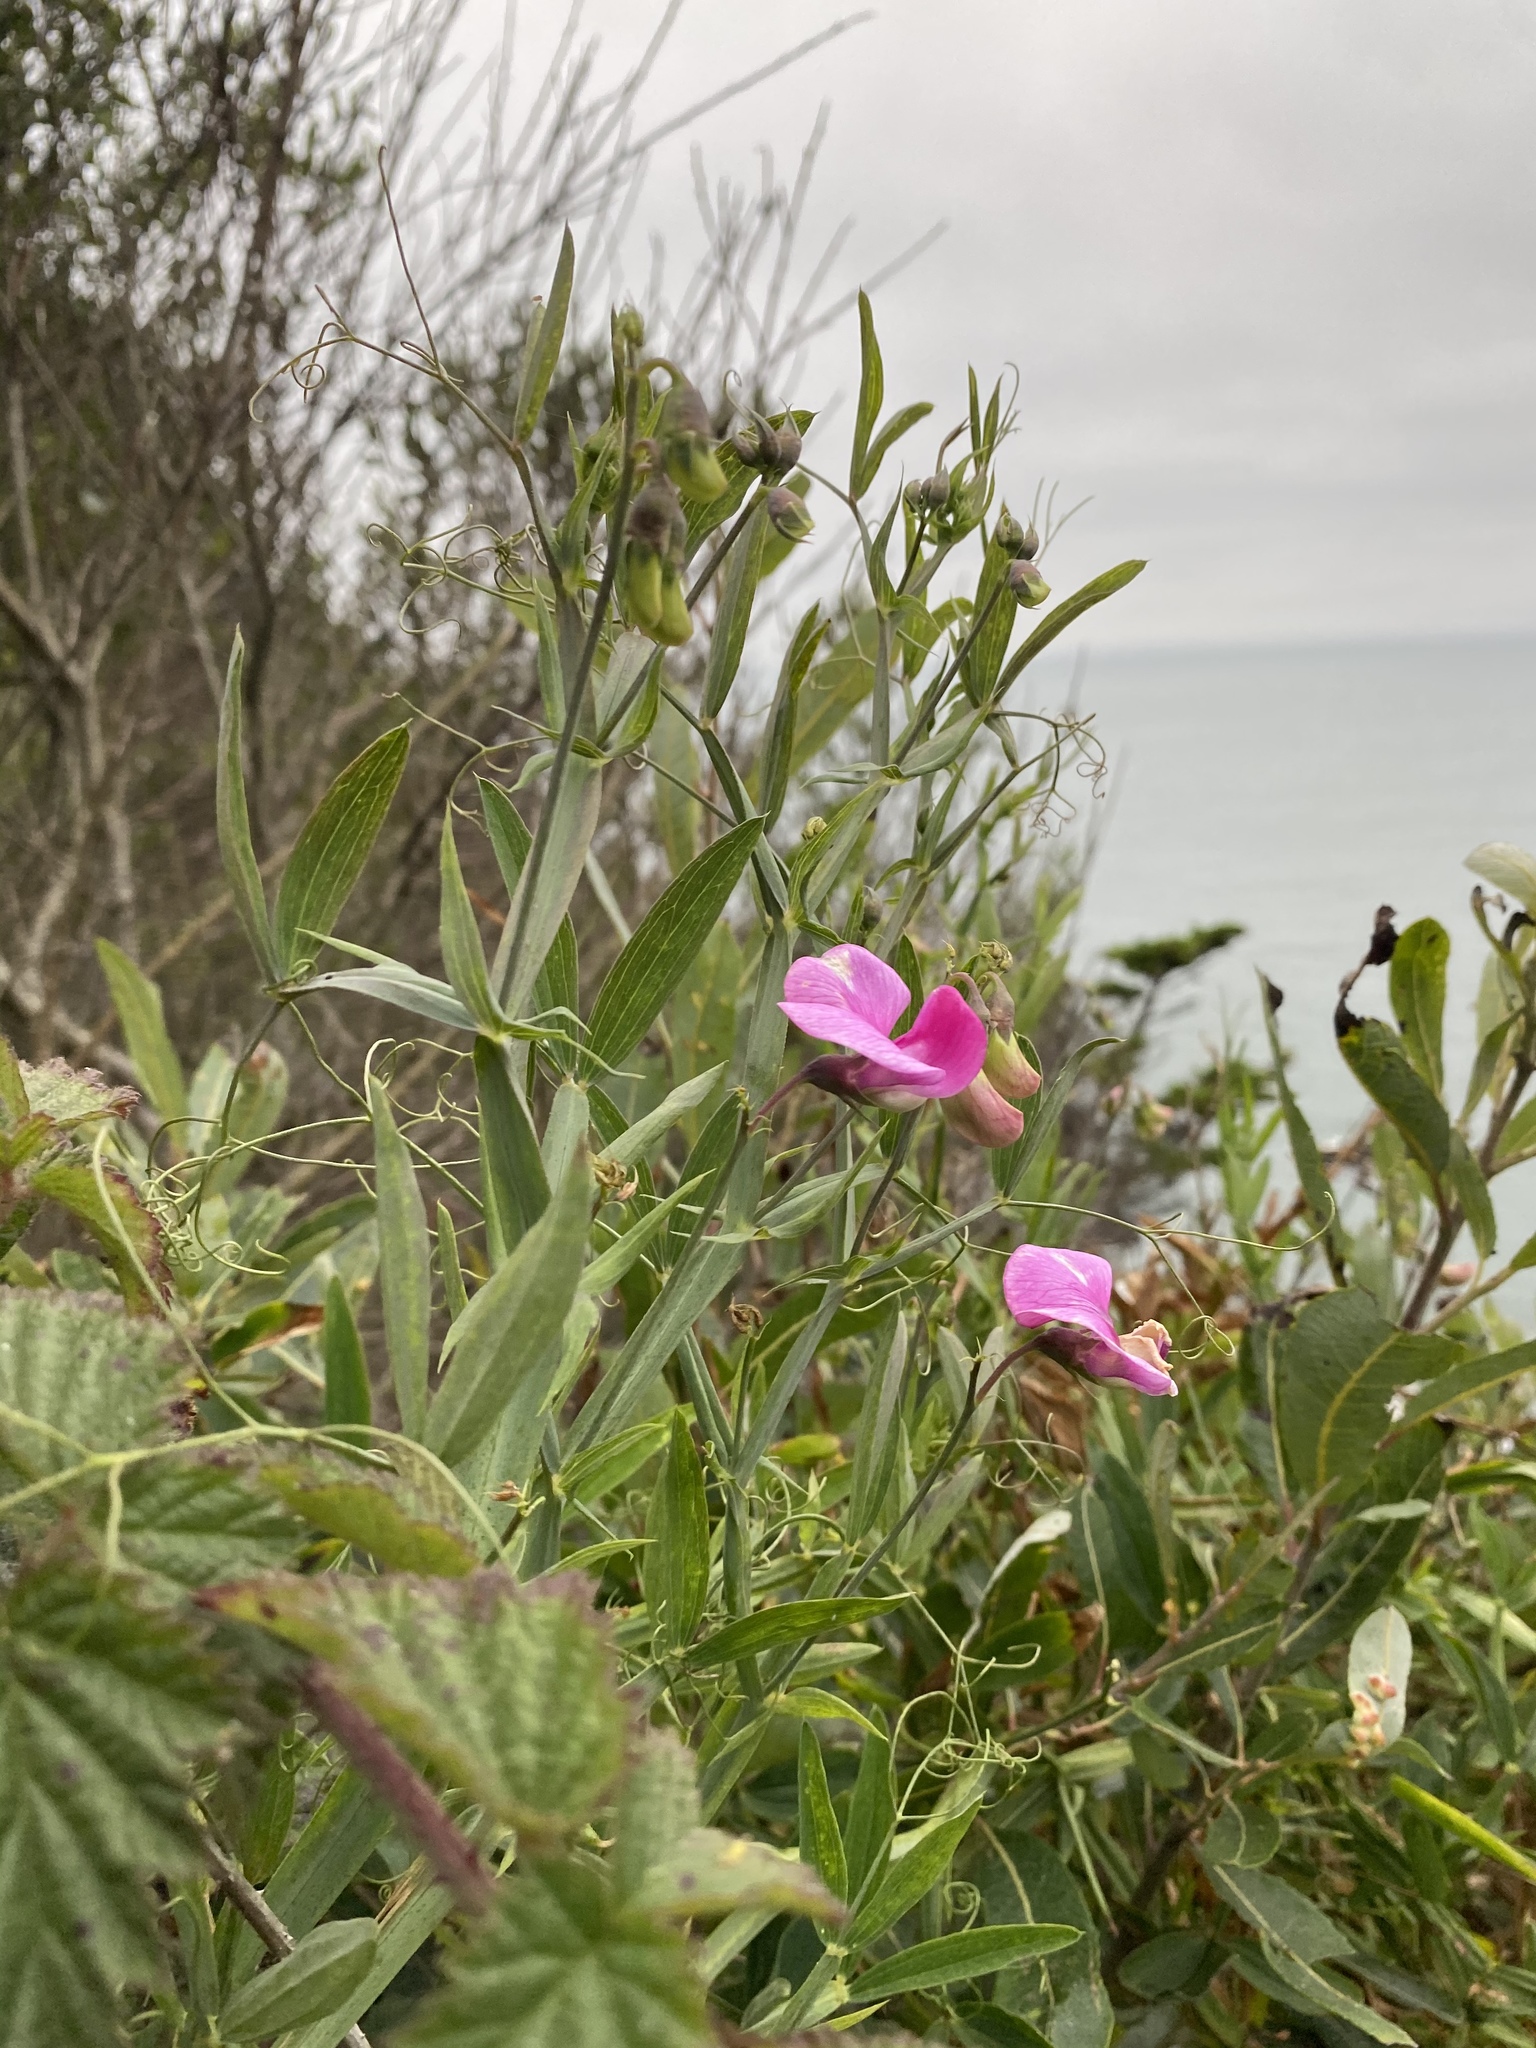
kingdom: Plantae
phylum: Tracheophyta
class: Magnoliopsida
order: Fabales
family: Fabaceae
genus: Lathyrus
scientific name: Lathyrus latifolius
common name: Perennial pea
